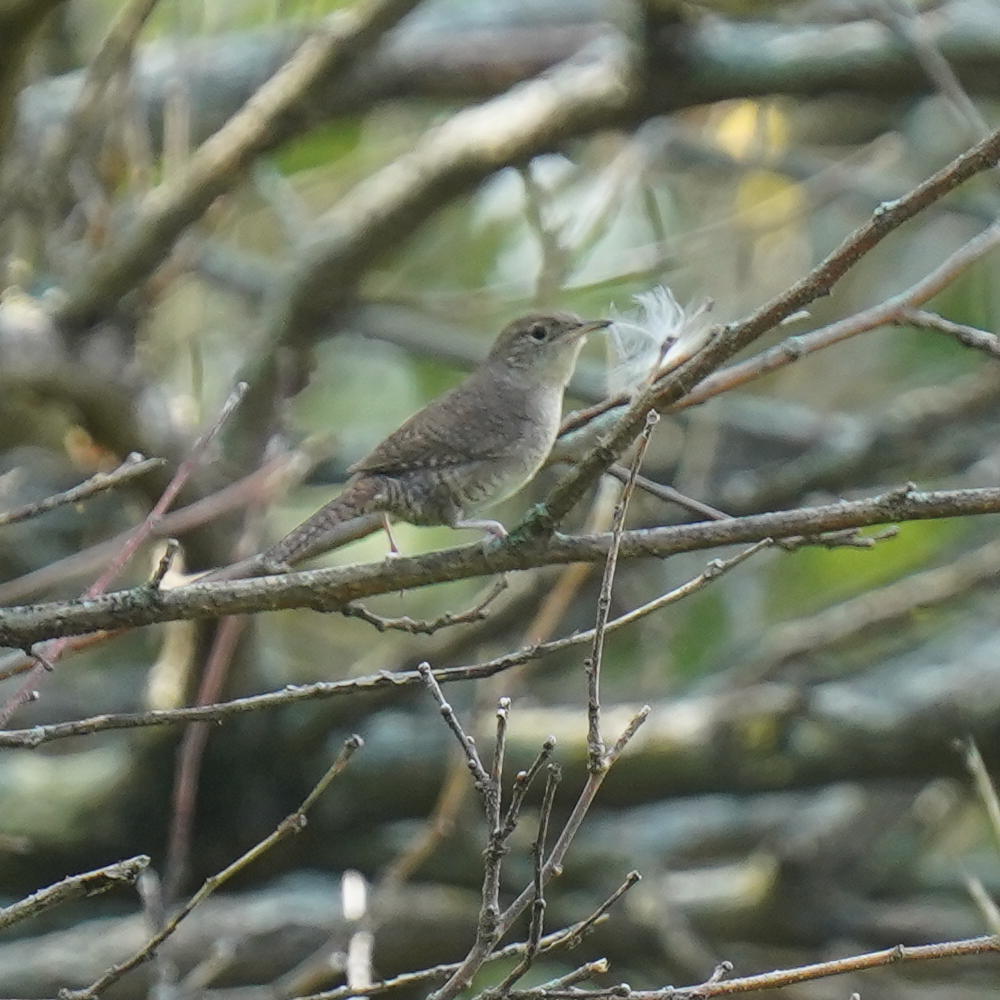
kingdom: Animalia
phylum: Chordata
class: Aves
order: Passeriformes
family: Troglodytidae
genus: Troglodytes
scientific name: Troglodytes aedon
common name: House wren
